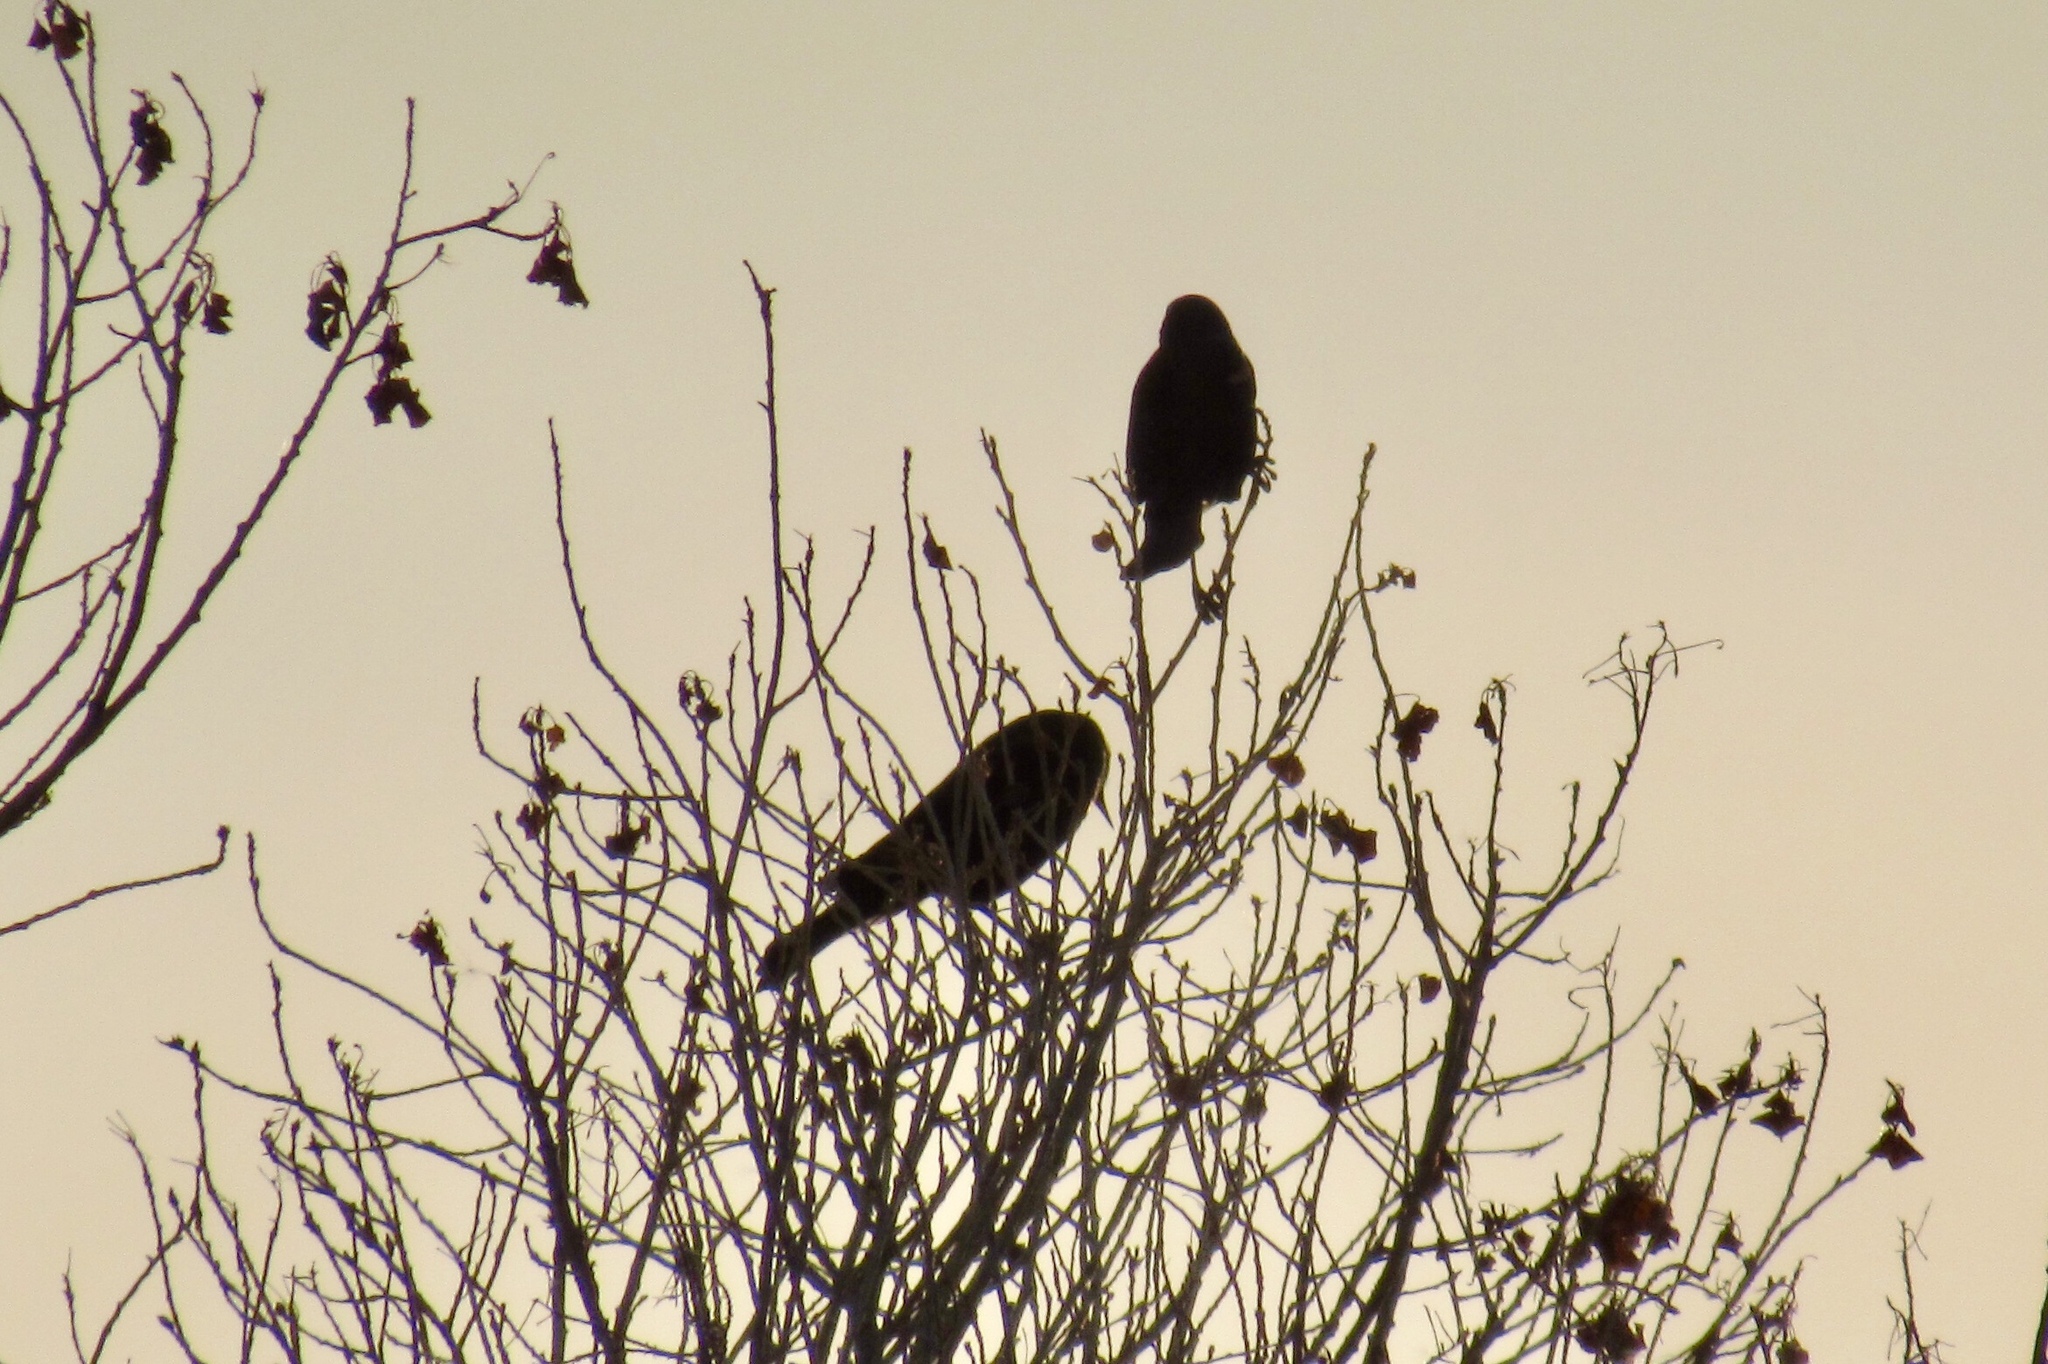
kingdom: Animalia
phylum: Chordata
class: Aves
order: Passeriformes
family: Icteridae
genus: Agelaius
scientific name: Agelaius phoeniceus
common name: Red-winged blackbird
